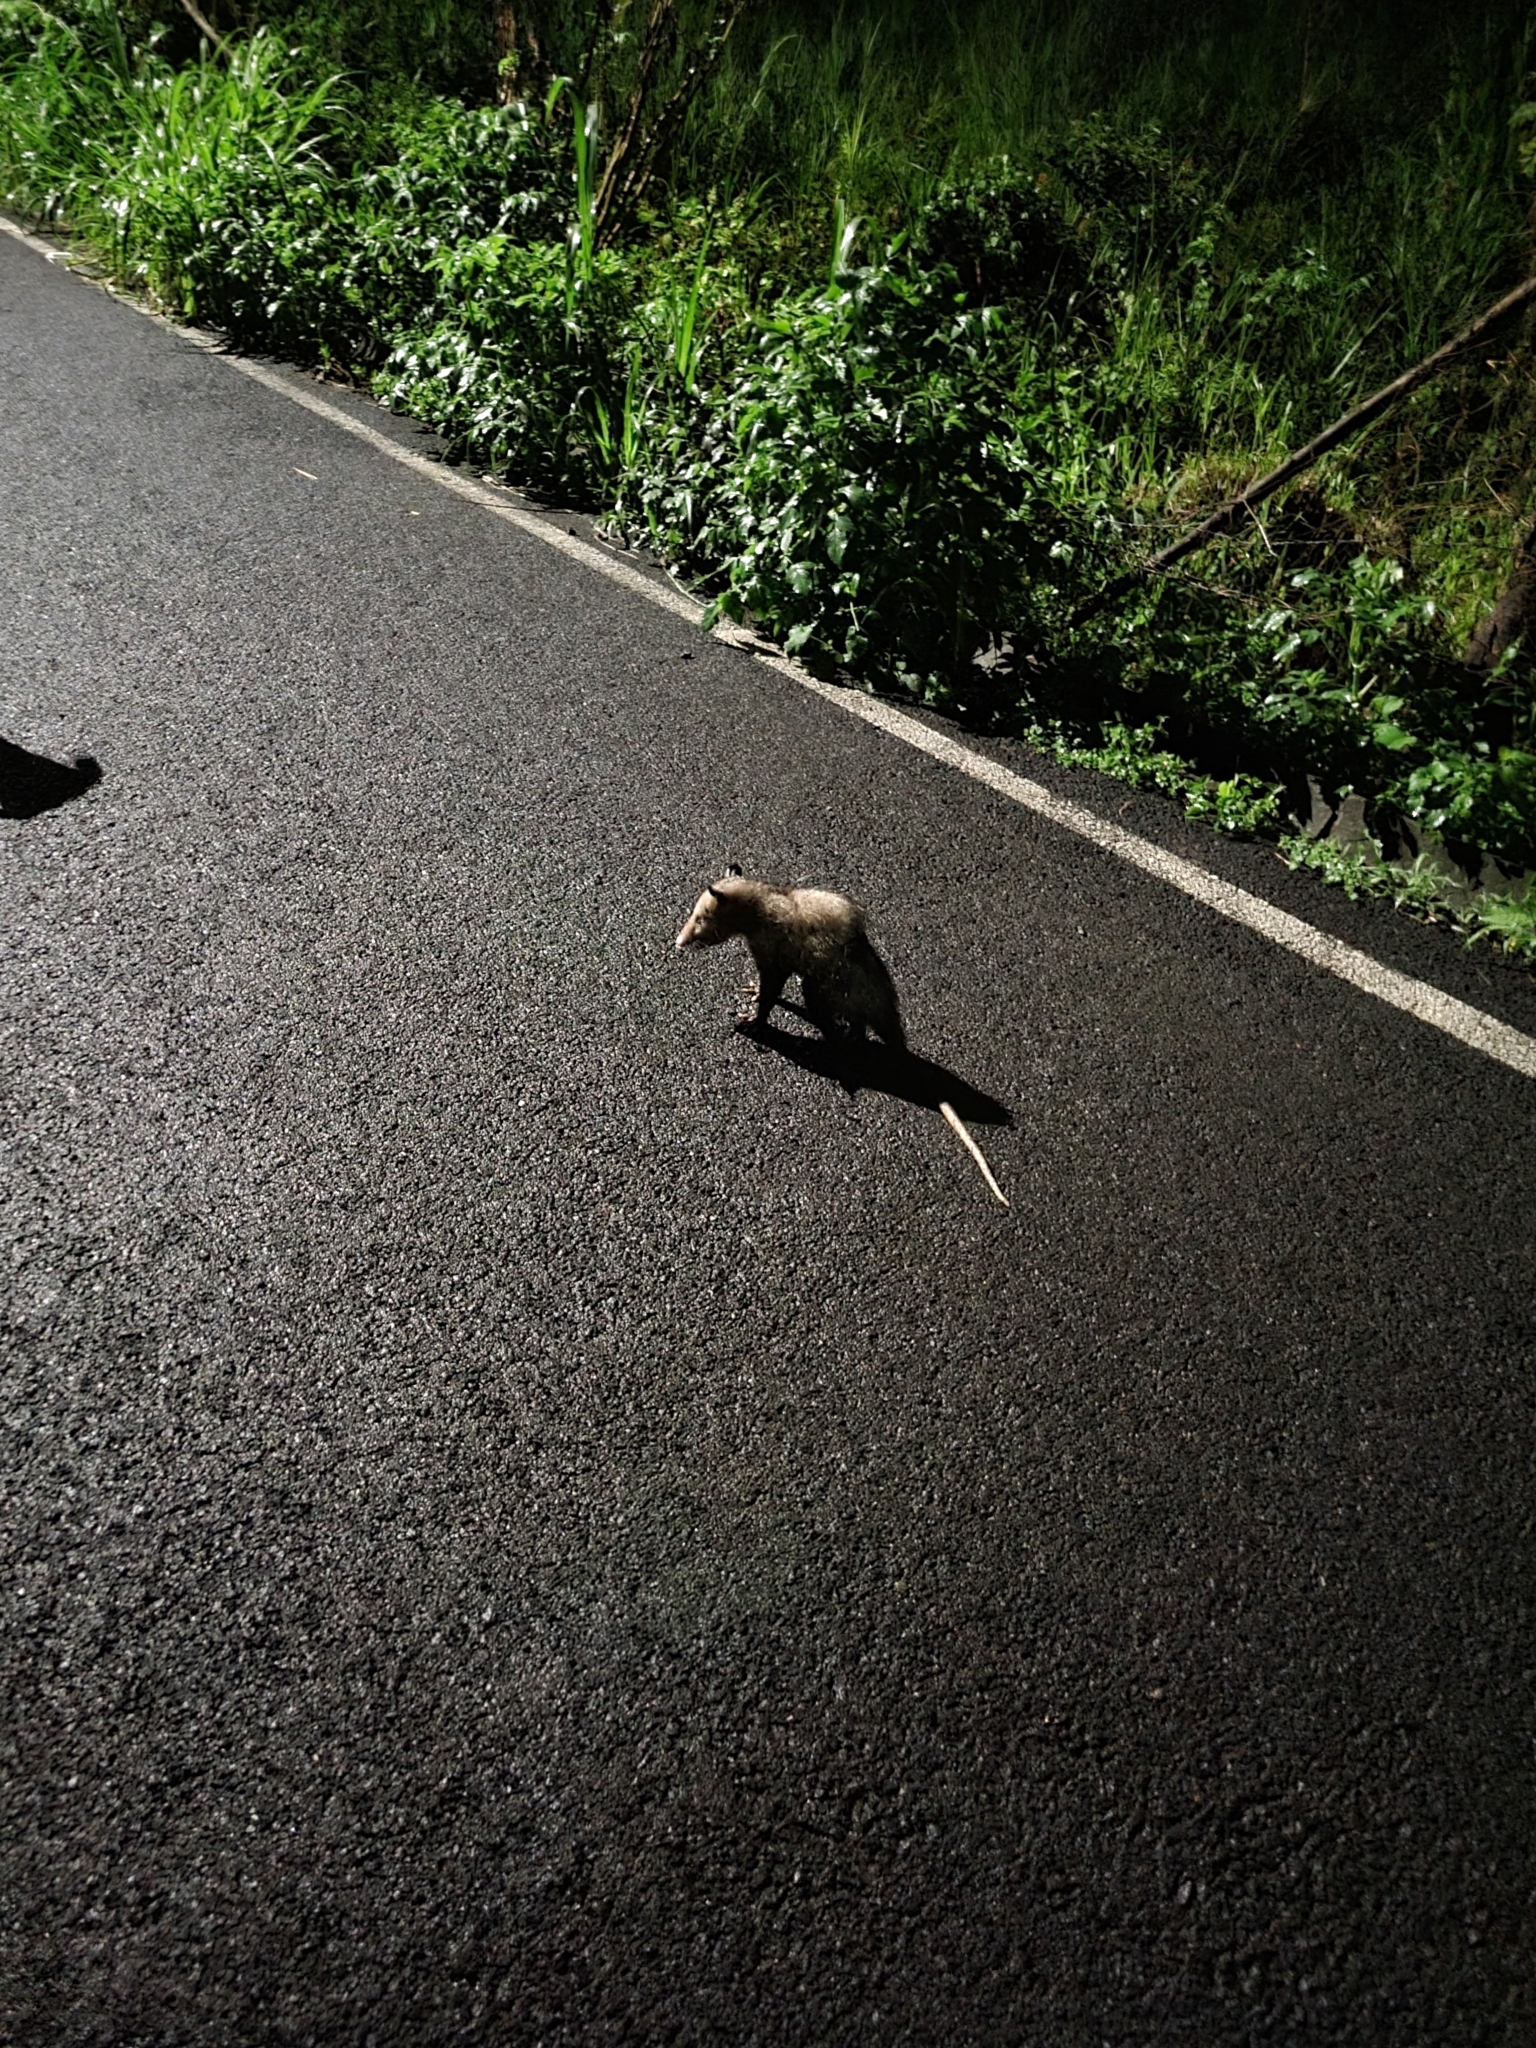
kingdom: Animalia
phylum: Chordata
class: Mammalia
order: Didelphimorphia
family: Didelphidae
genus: Didelphis
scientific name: Didelphis marsupialis
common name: Common opossum
